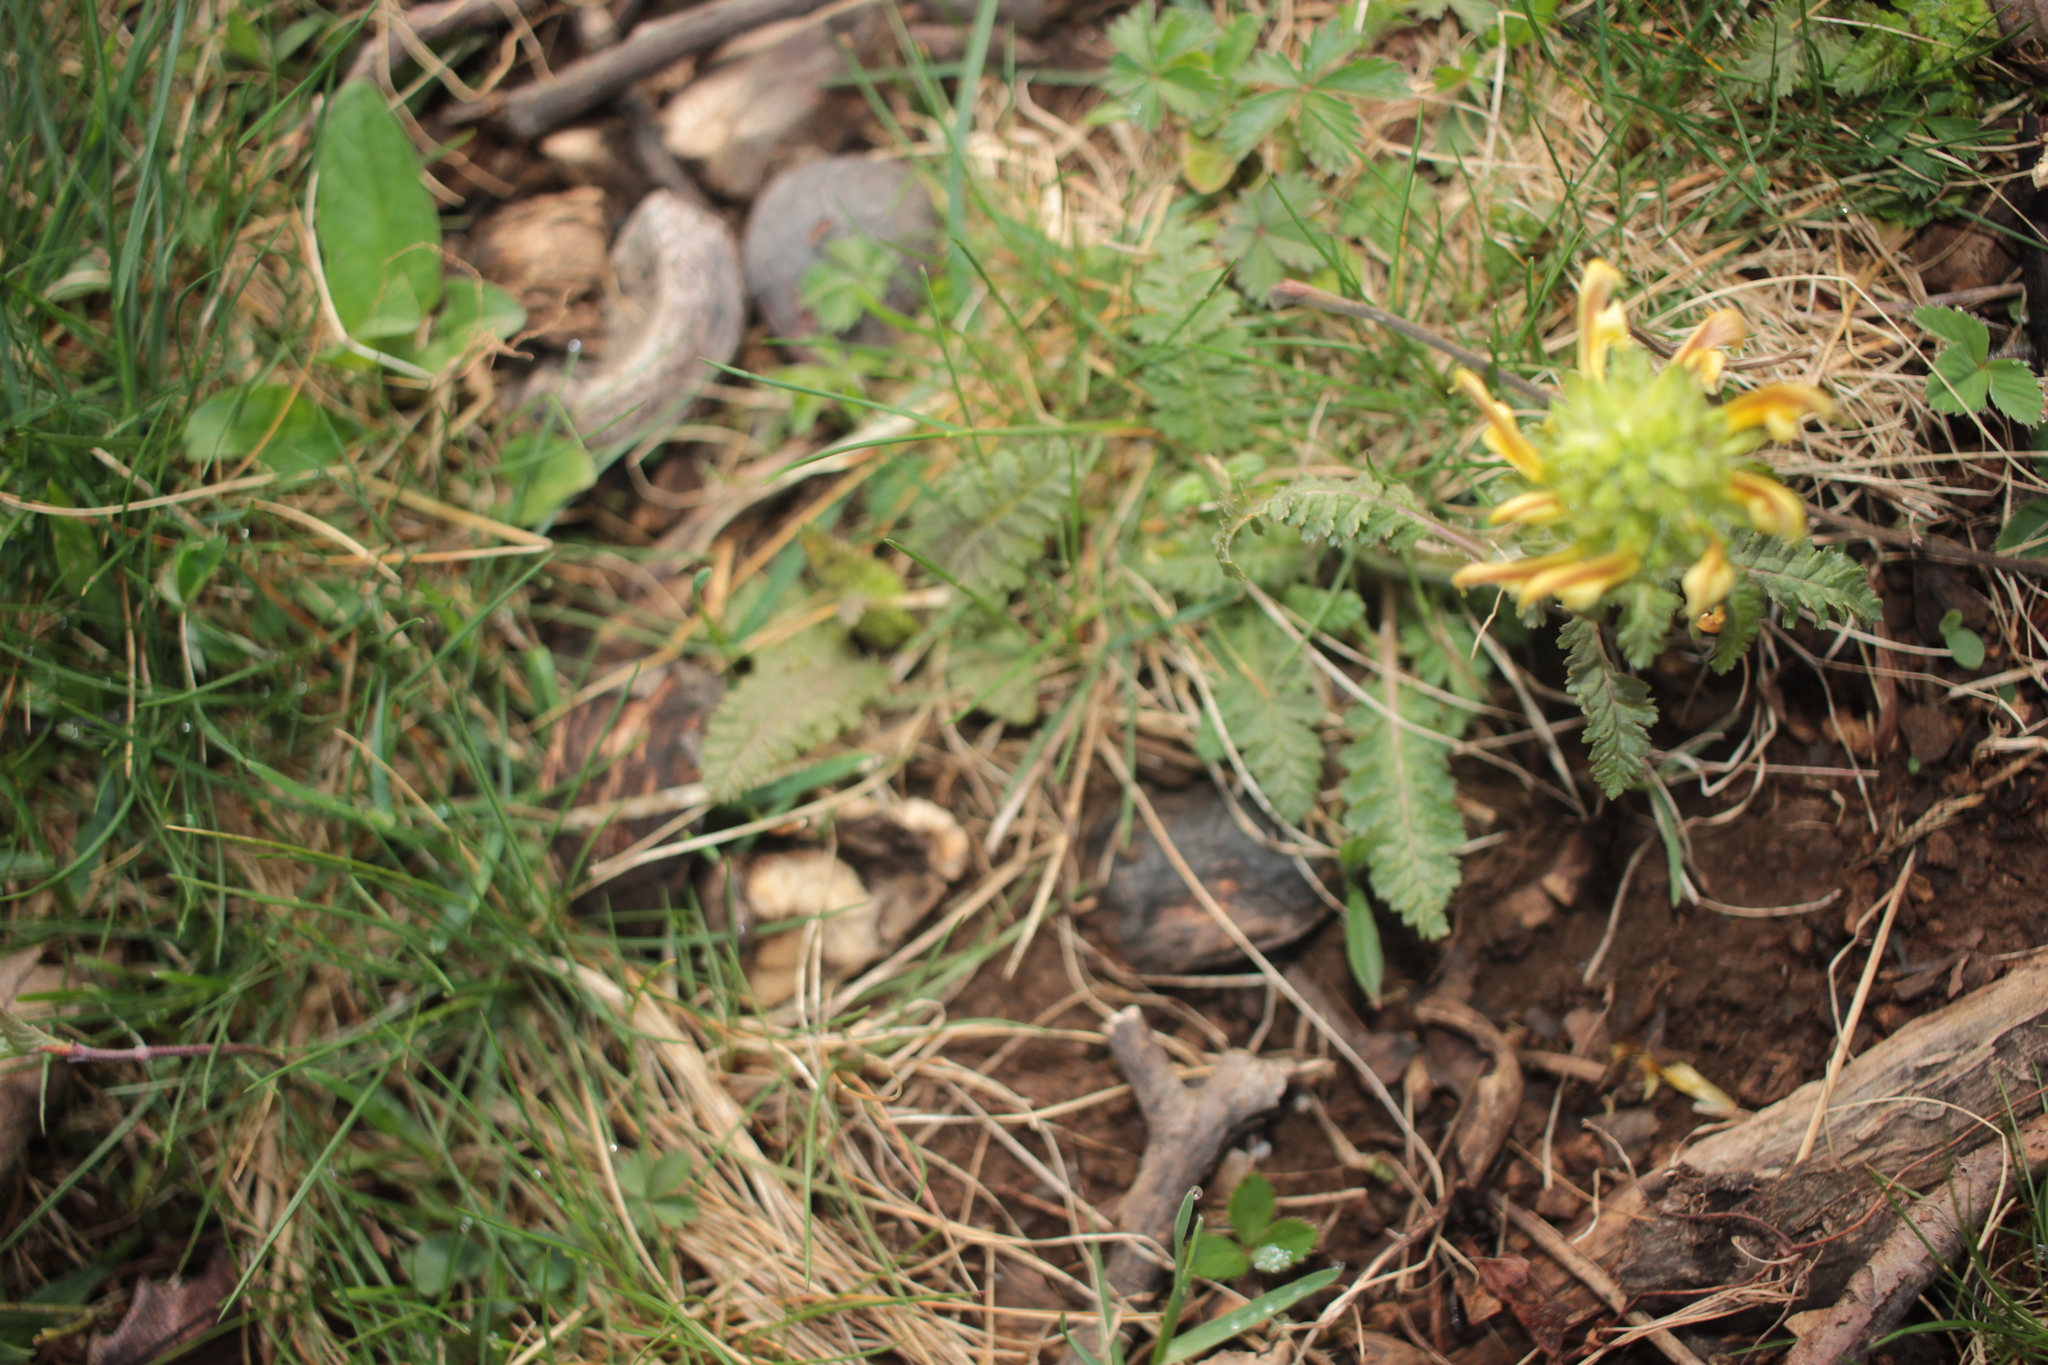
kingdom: Plantae
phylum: Tracheophyta
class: Magnoliopsida
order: Lamiales
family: Orobanchaceae
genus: Pedicularis
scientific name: Pedicularis canadensis
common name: Early lousewort
